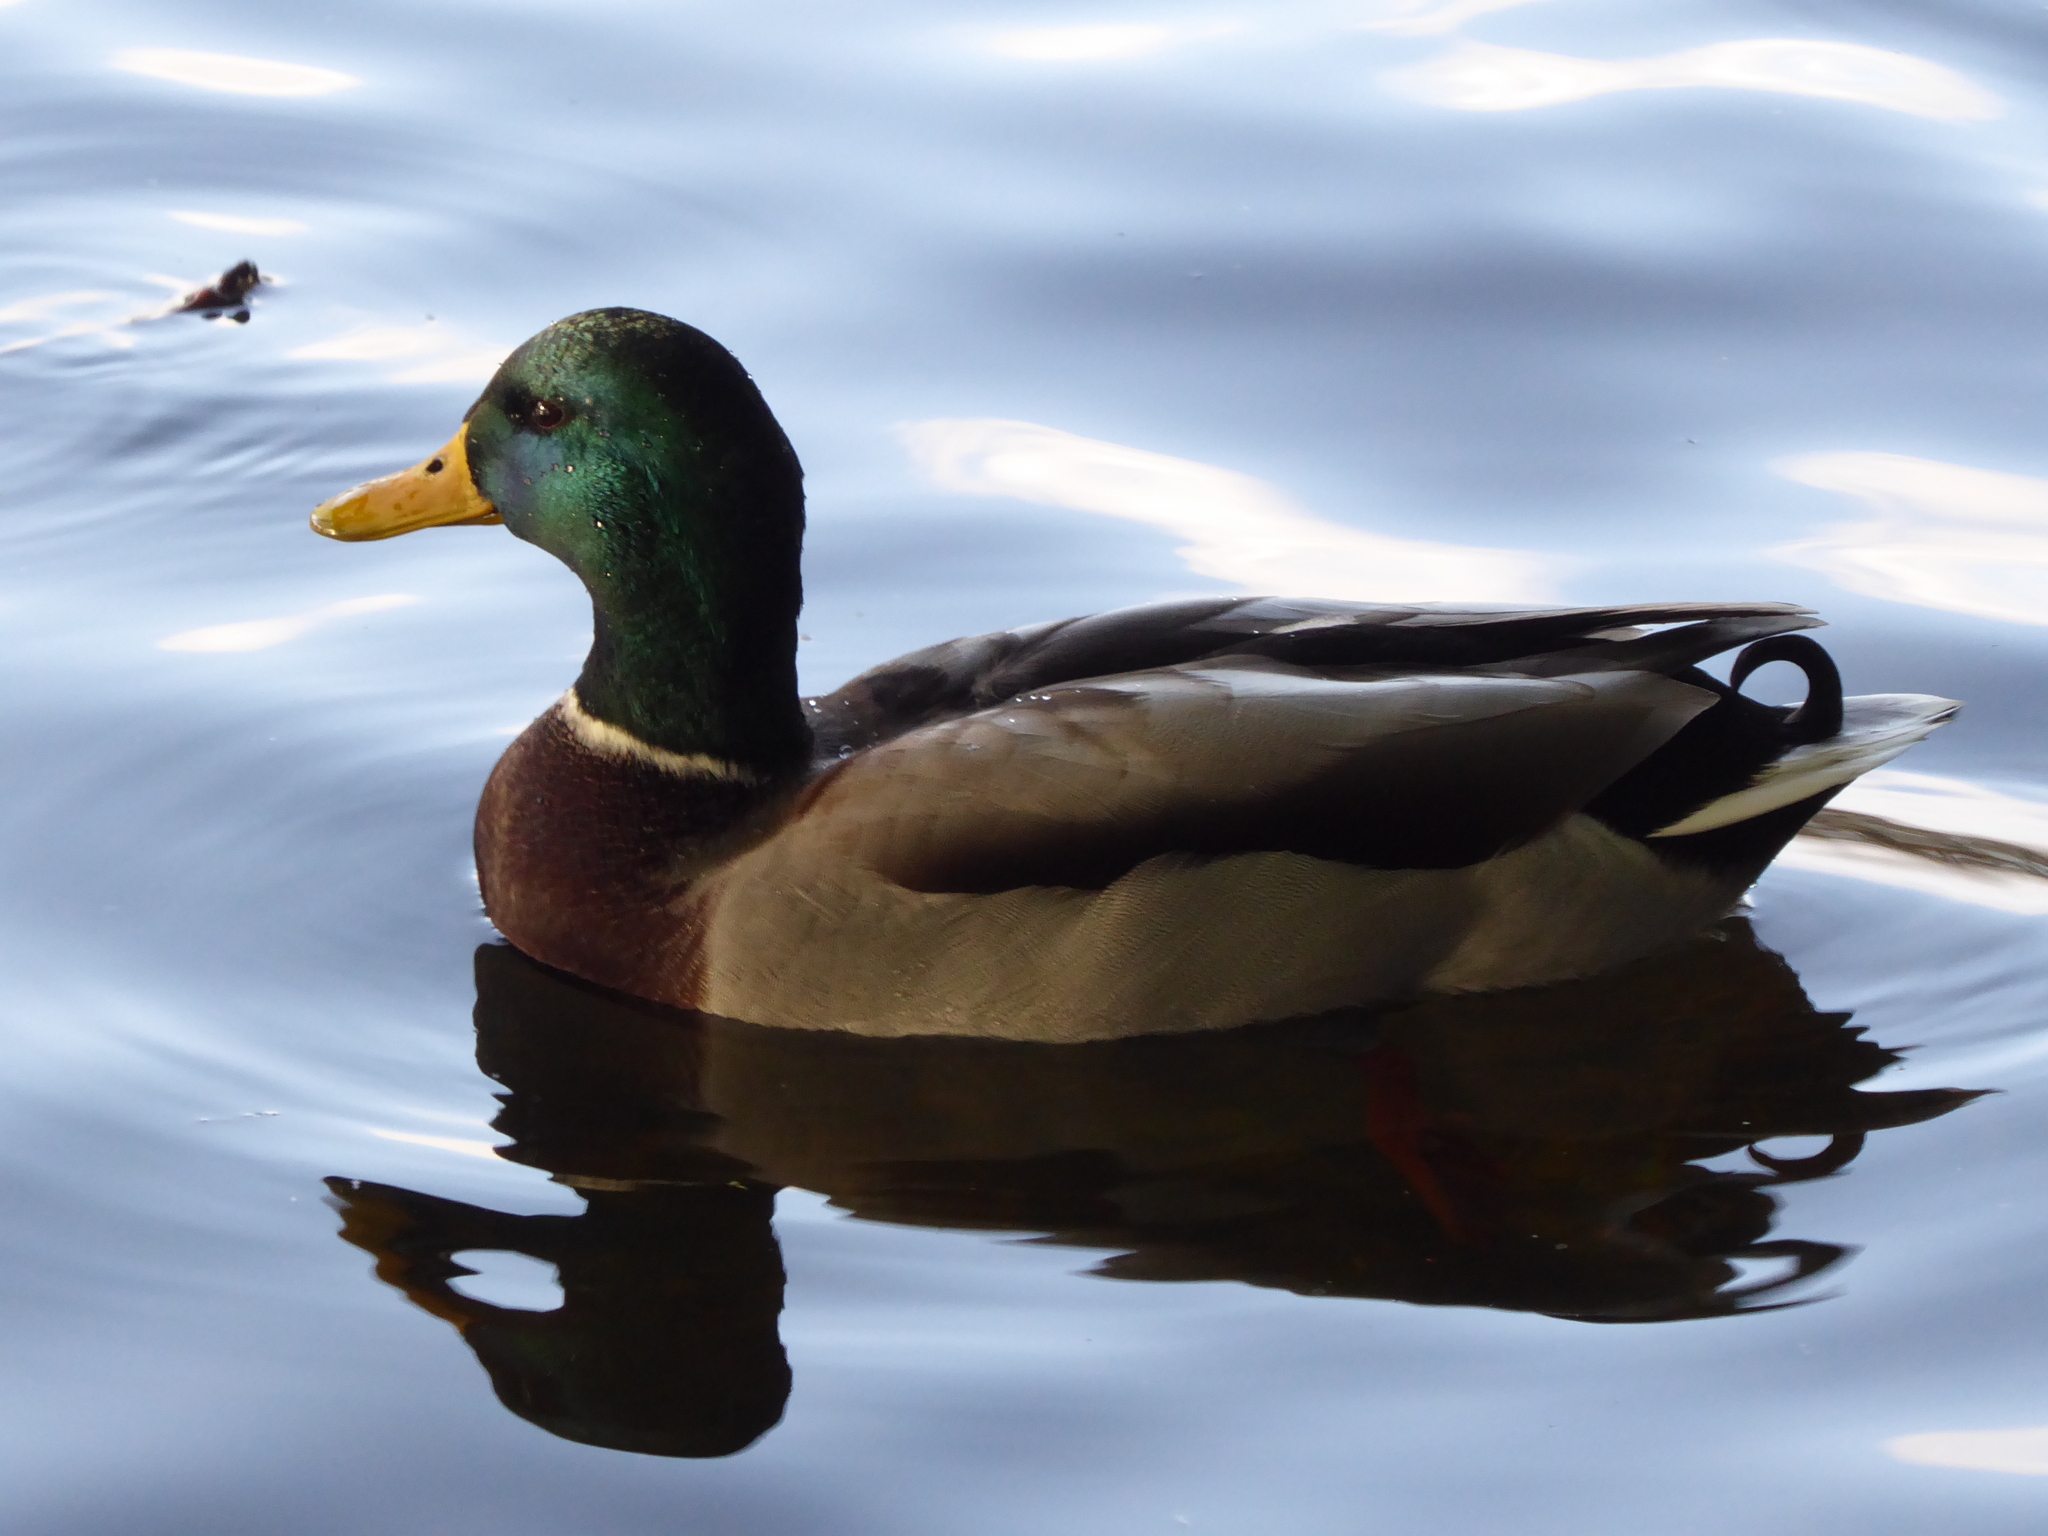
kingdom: Animalia
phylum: Chordata
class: Aves
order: Anseriformes
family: Anatidae
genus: Anas
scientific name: Anas platyrhynchos
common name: Mallard
